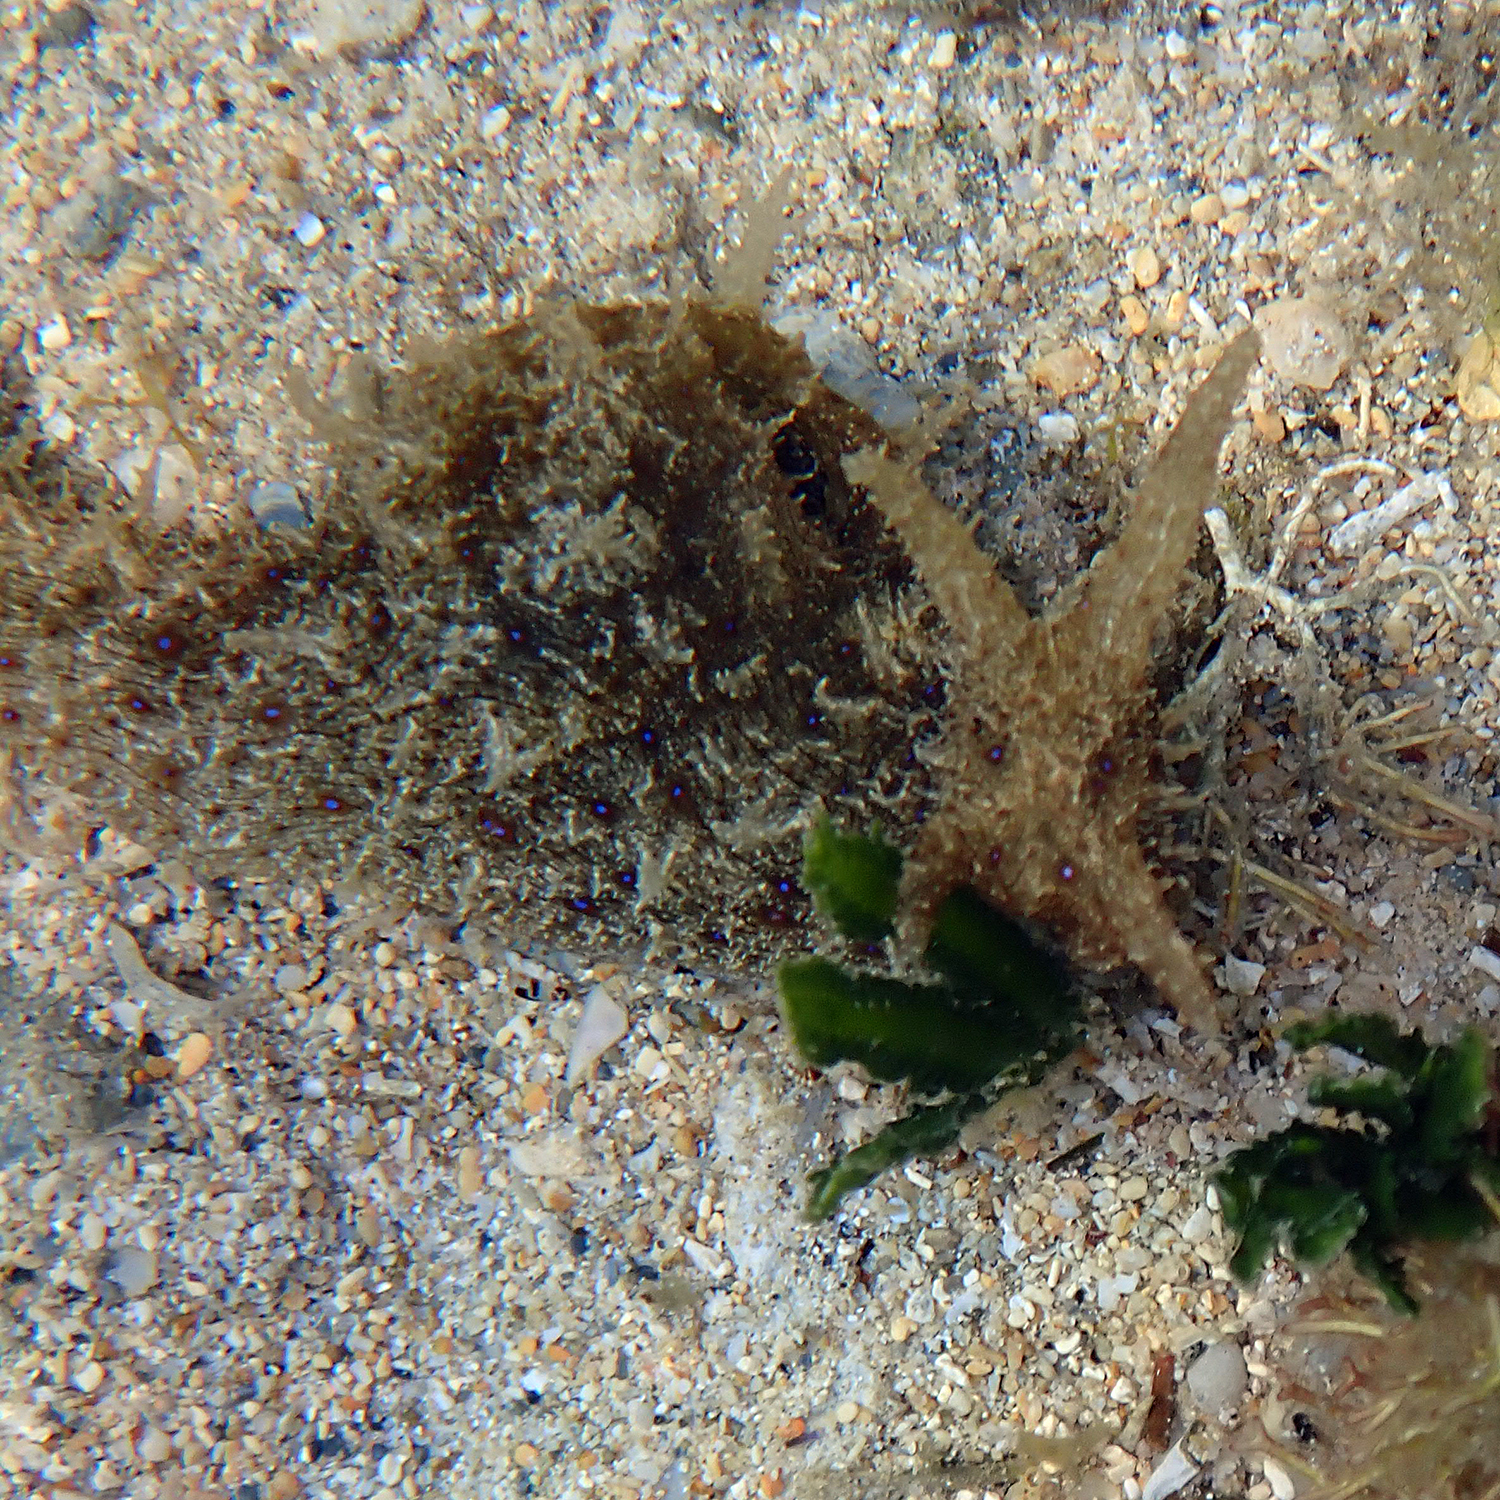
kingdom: Animalia
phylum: Mollusca
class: Gastropoda
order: Aplysiida
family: Aplysiidae
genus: Stylocheilus
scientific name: Stylocheilus striatus
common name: Striated seahare
